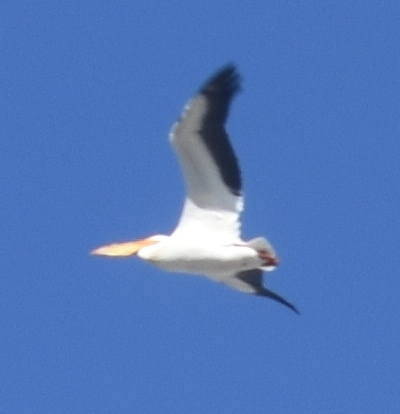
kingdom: Animalia
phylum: Chordata
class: Aves
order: Pelecaniformes
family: Pelecanidae
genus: Pelecanus
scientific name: Pelecanus erythrorhynchos
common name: American white pelican
